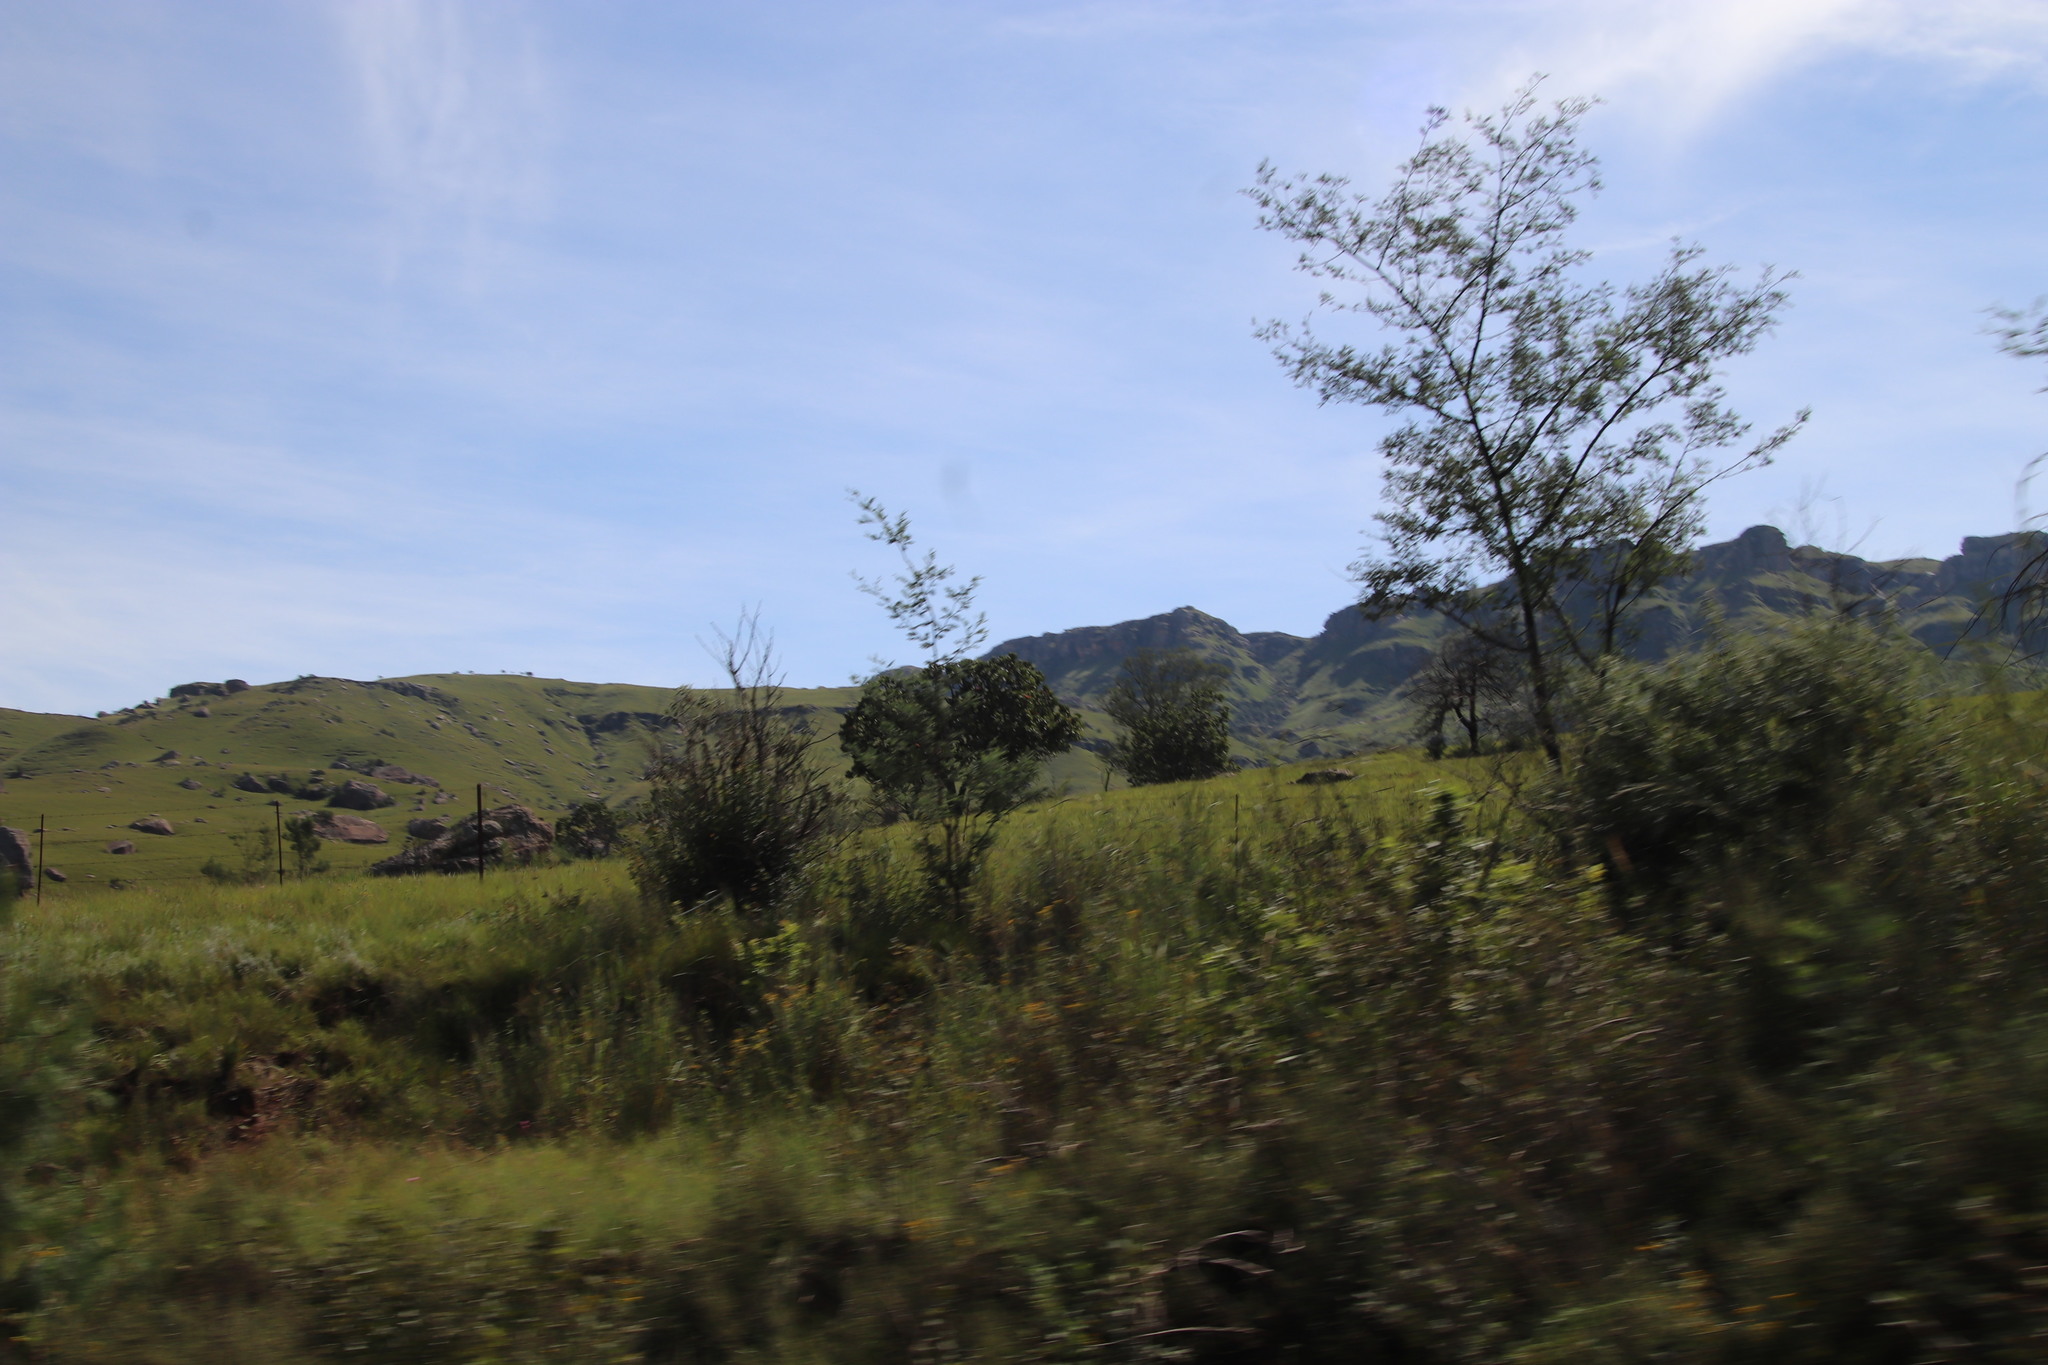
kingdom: Plantae
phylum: Tracheophyta
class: Magnoliopsida
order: Proteales
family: Proteaceae
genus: Protea
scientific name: Protea roupelliae
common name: Silver sugarbush
